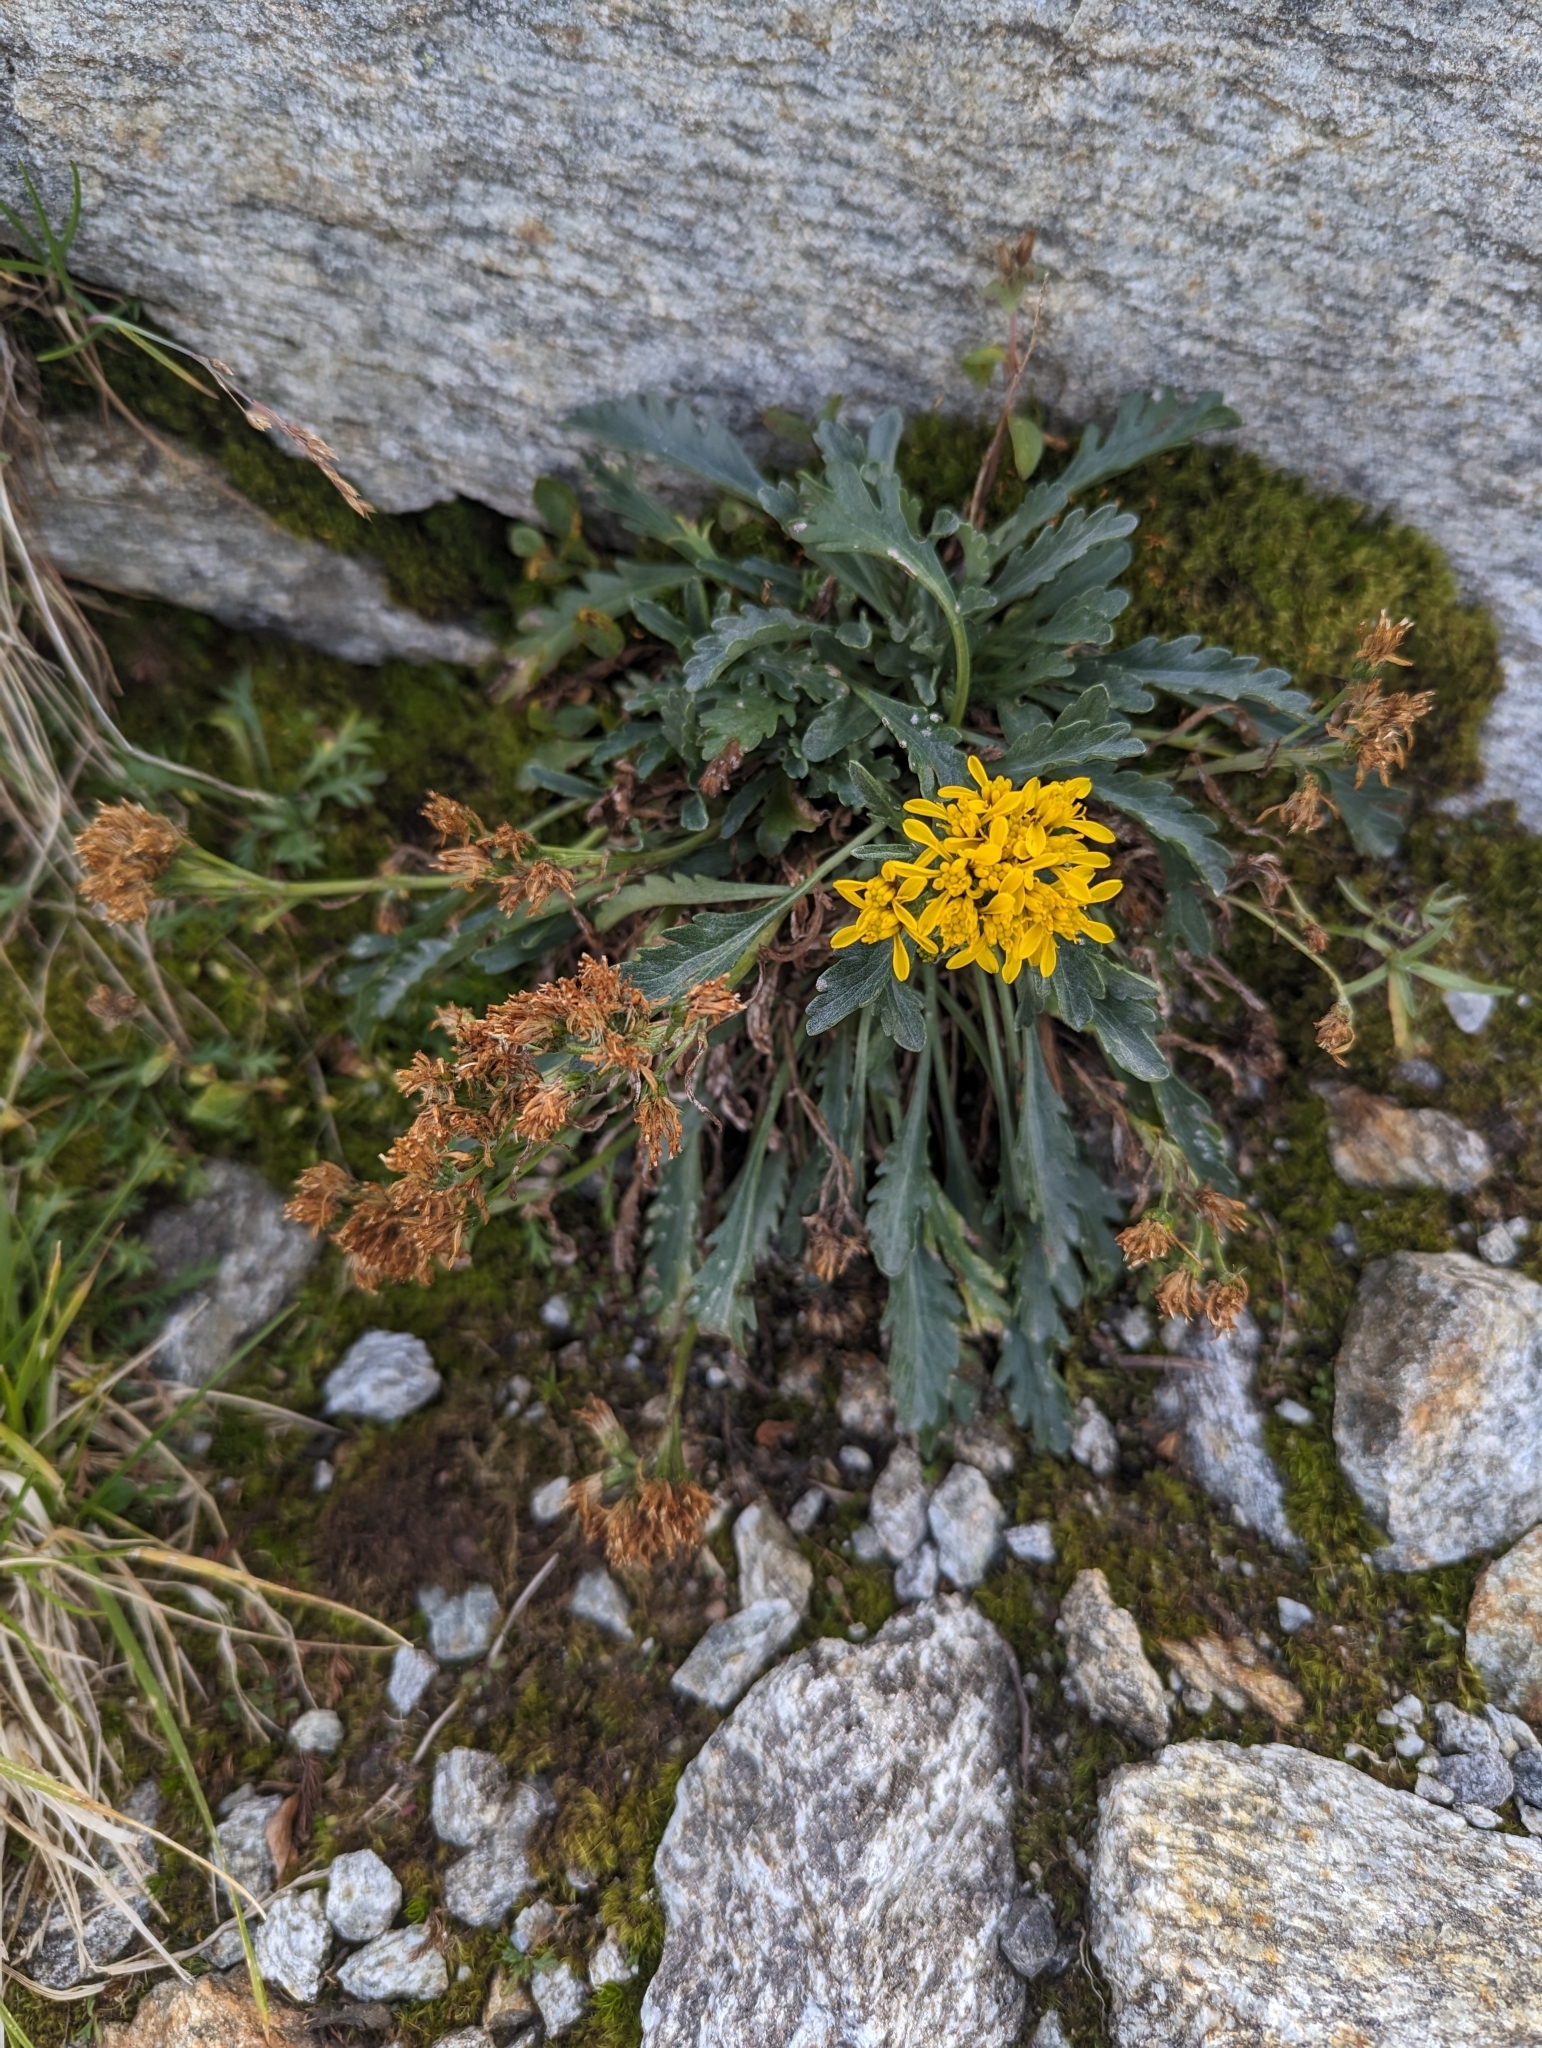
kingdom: Plantae
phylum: Tracheophyta
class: Magnoliopsida
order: Asterales
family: Asteraceae
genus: Jacobaea
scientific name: Jacobaea carniolica
